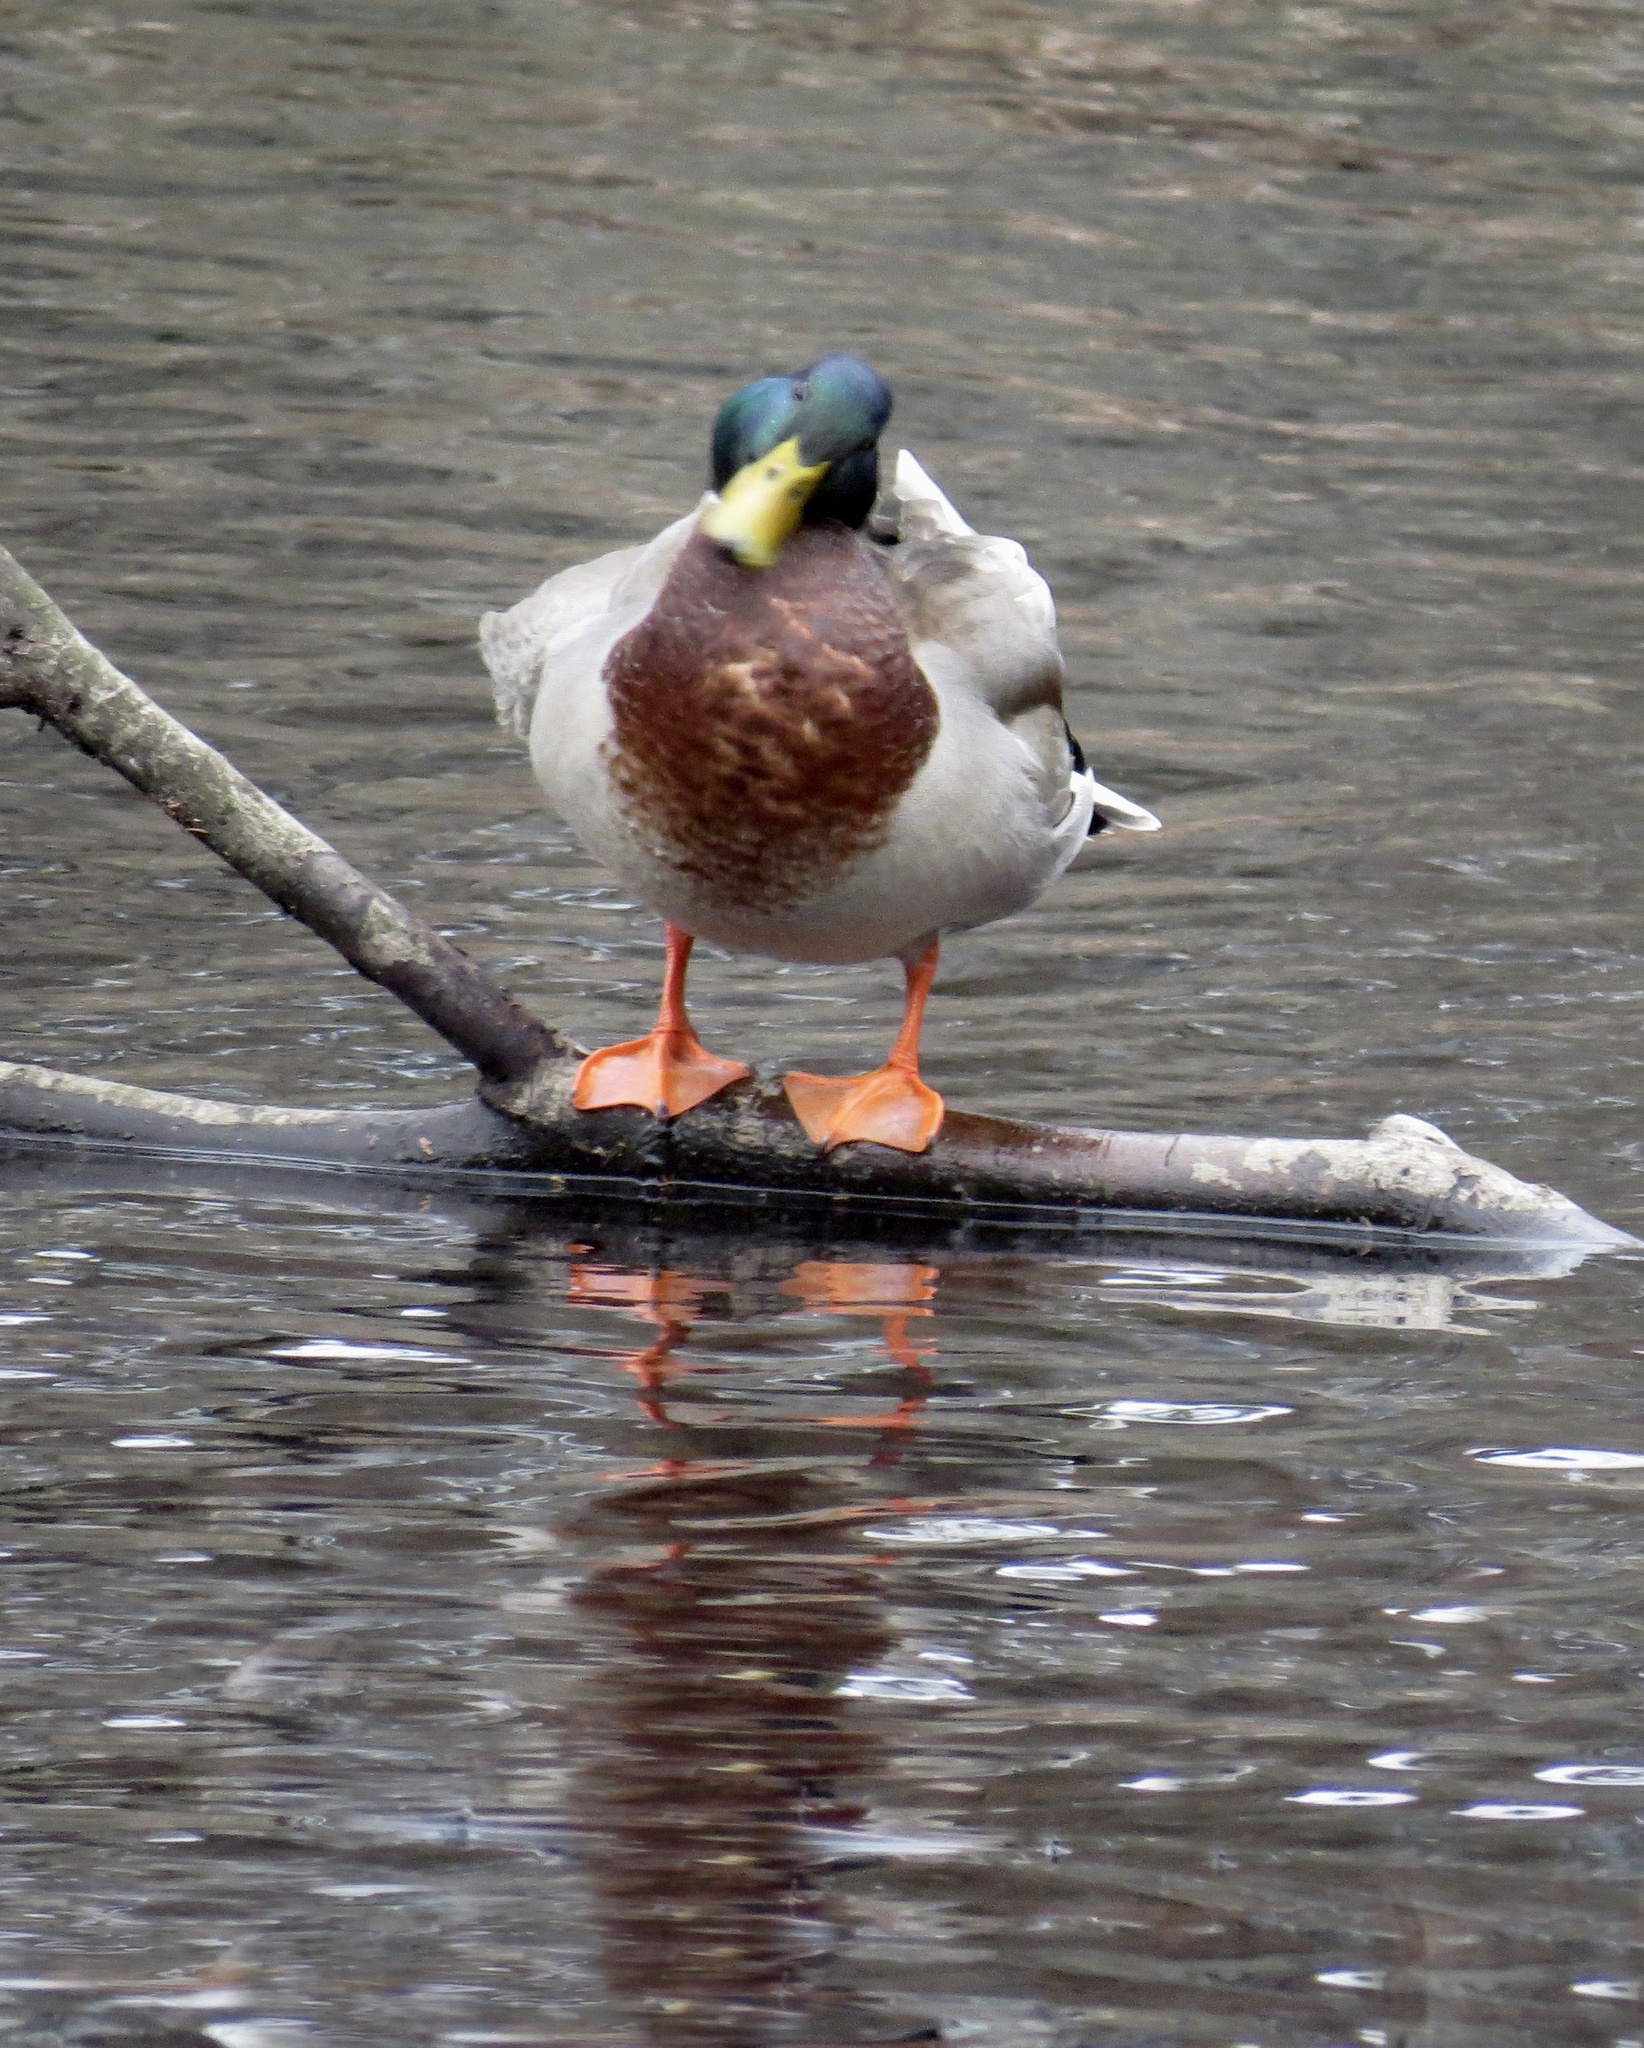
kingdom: Animalia
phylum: Chordata
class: Aves
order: Anseriformes
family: Anatidae
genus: Anas
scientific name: Anas platyrhynchos
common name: Mallard
